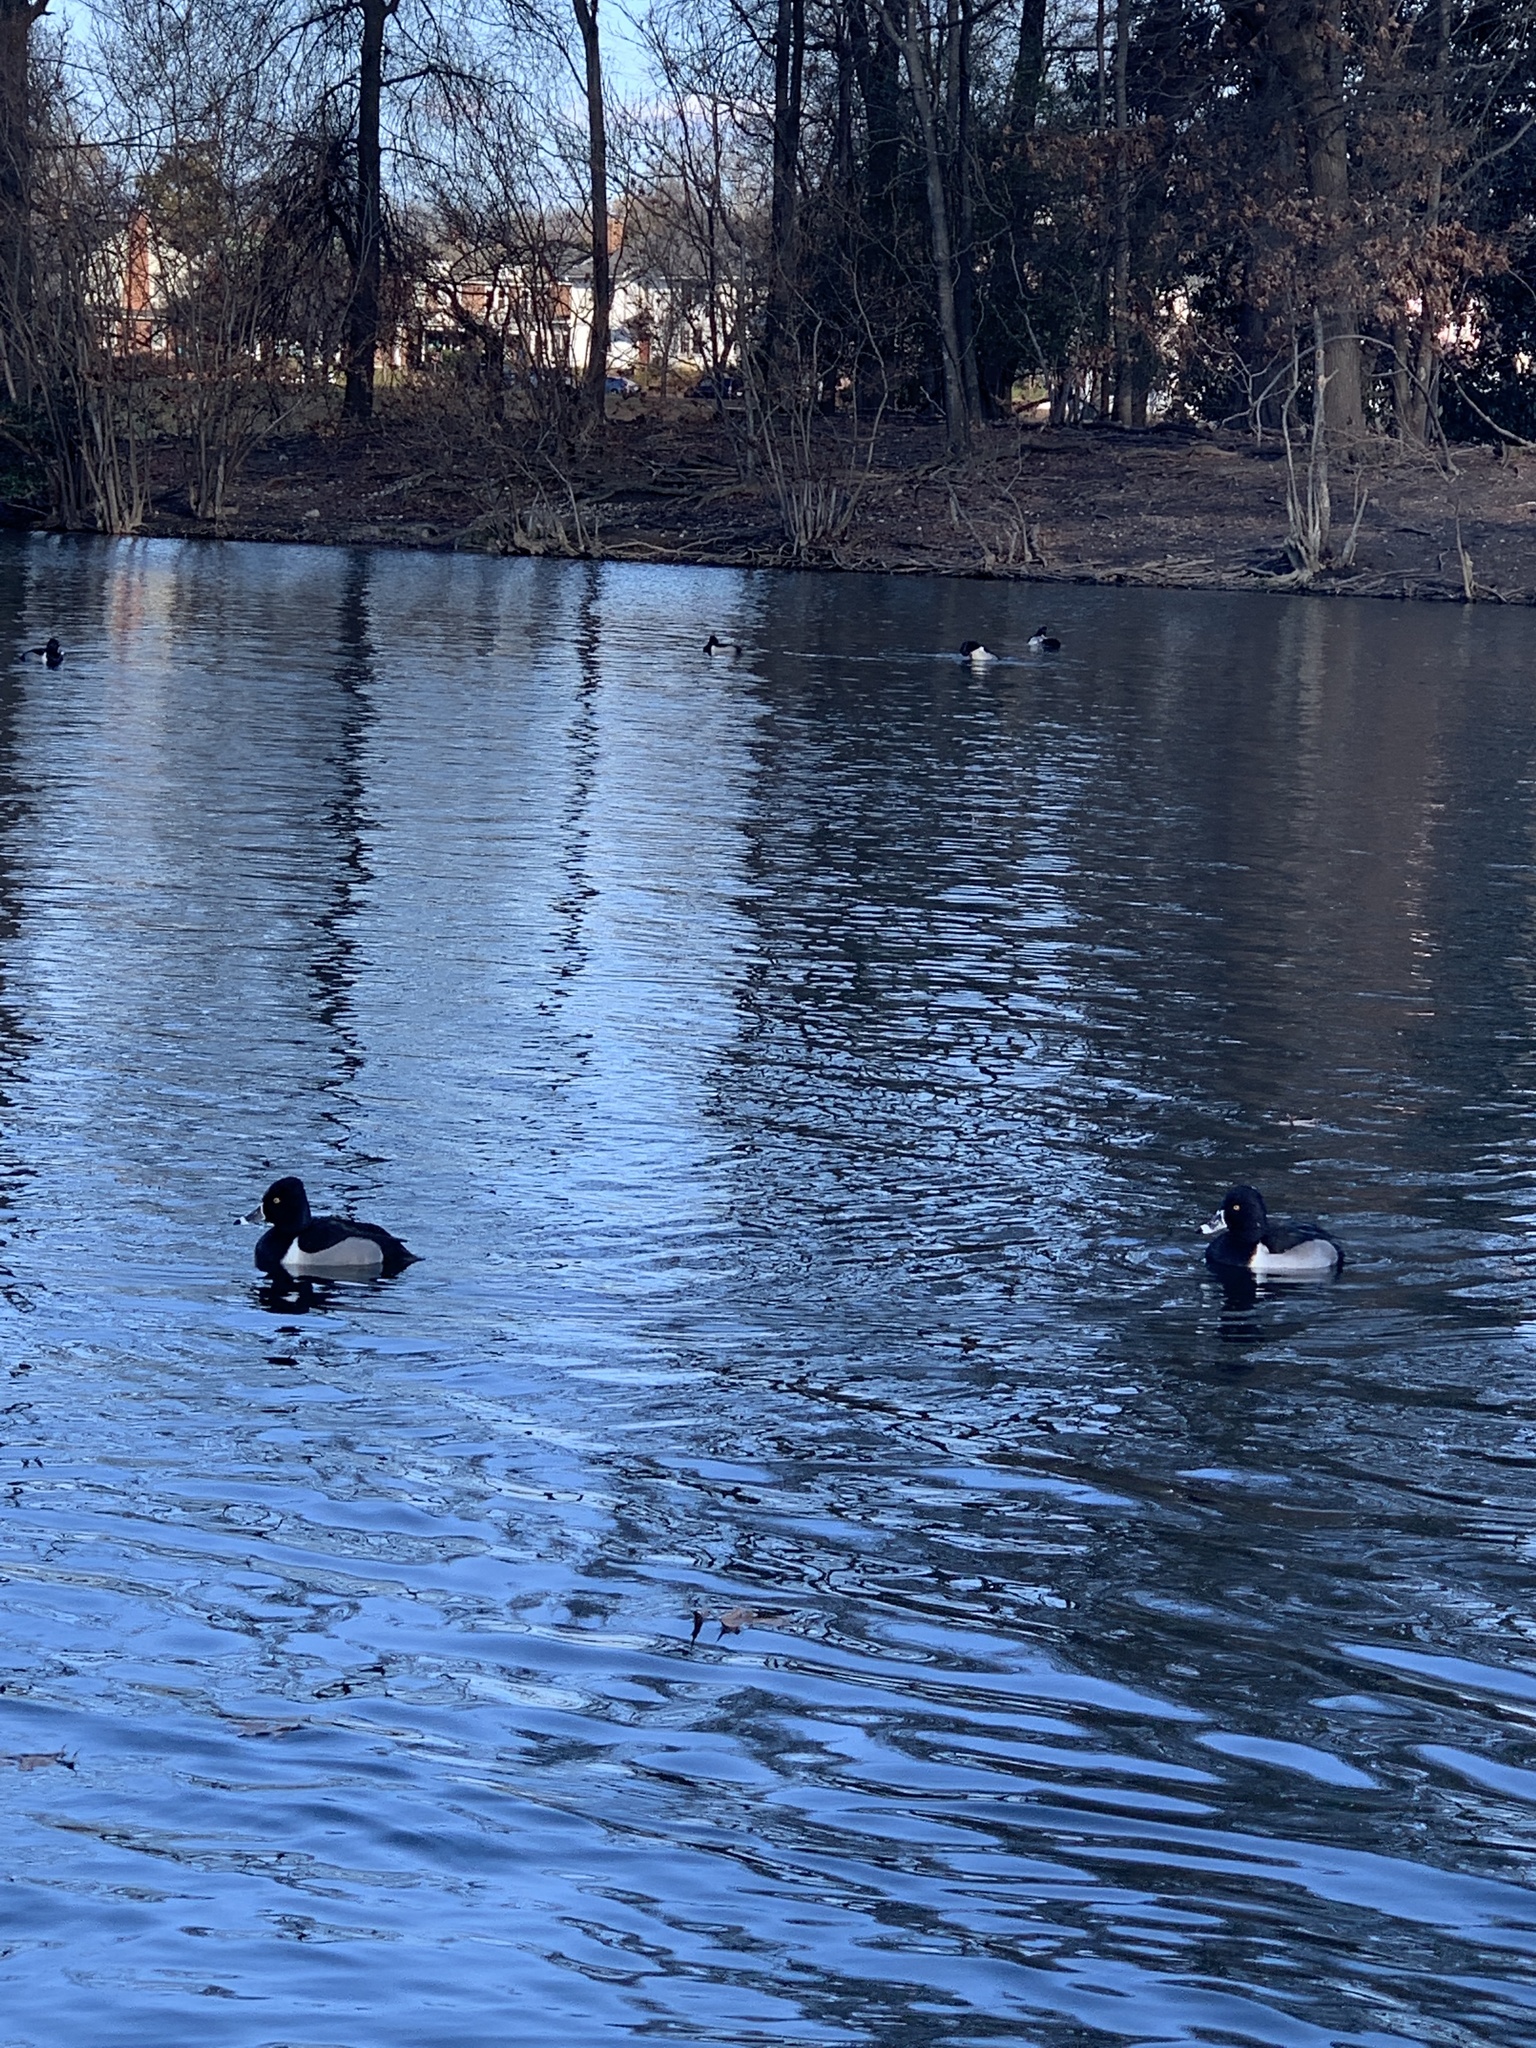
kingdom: Animalia
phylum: Chordata
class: Aves
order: Anseriformes
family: Anatidae
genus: Aythya
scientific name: Aythya collaris
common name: Ring-necked duck
